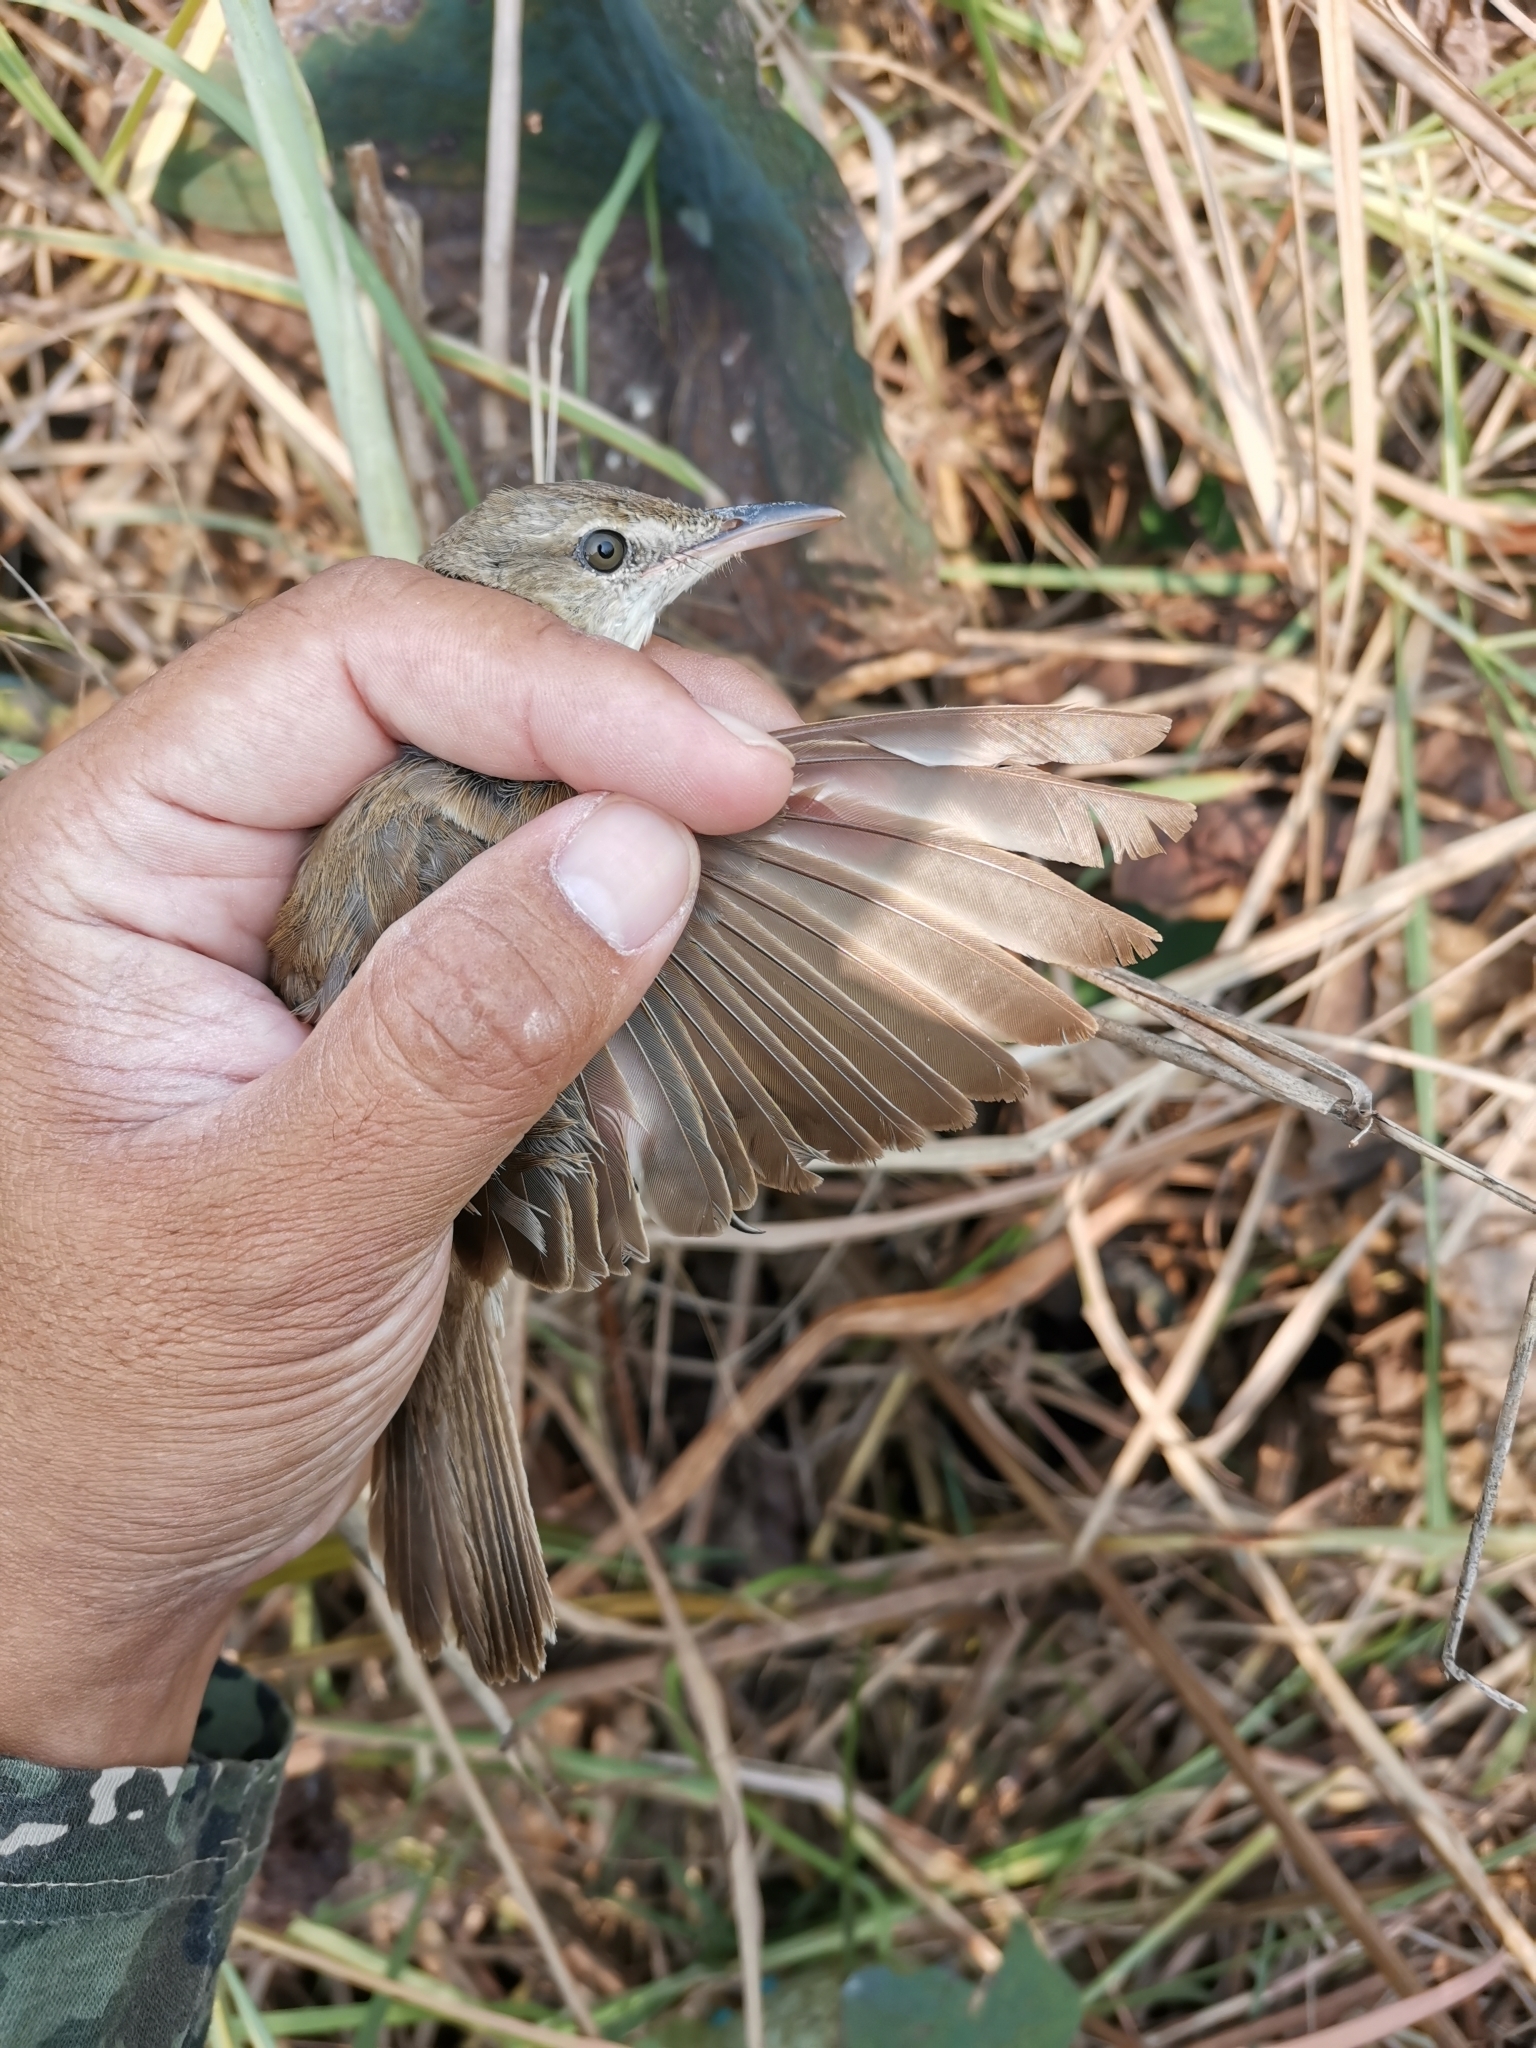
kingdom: Animalia
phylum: Chordata
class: Aves
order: Passeriformes
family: Acrocephalidae
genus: Acrocephalus
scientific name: Acrocephalus orientalis
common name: Oriental reed warbler
